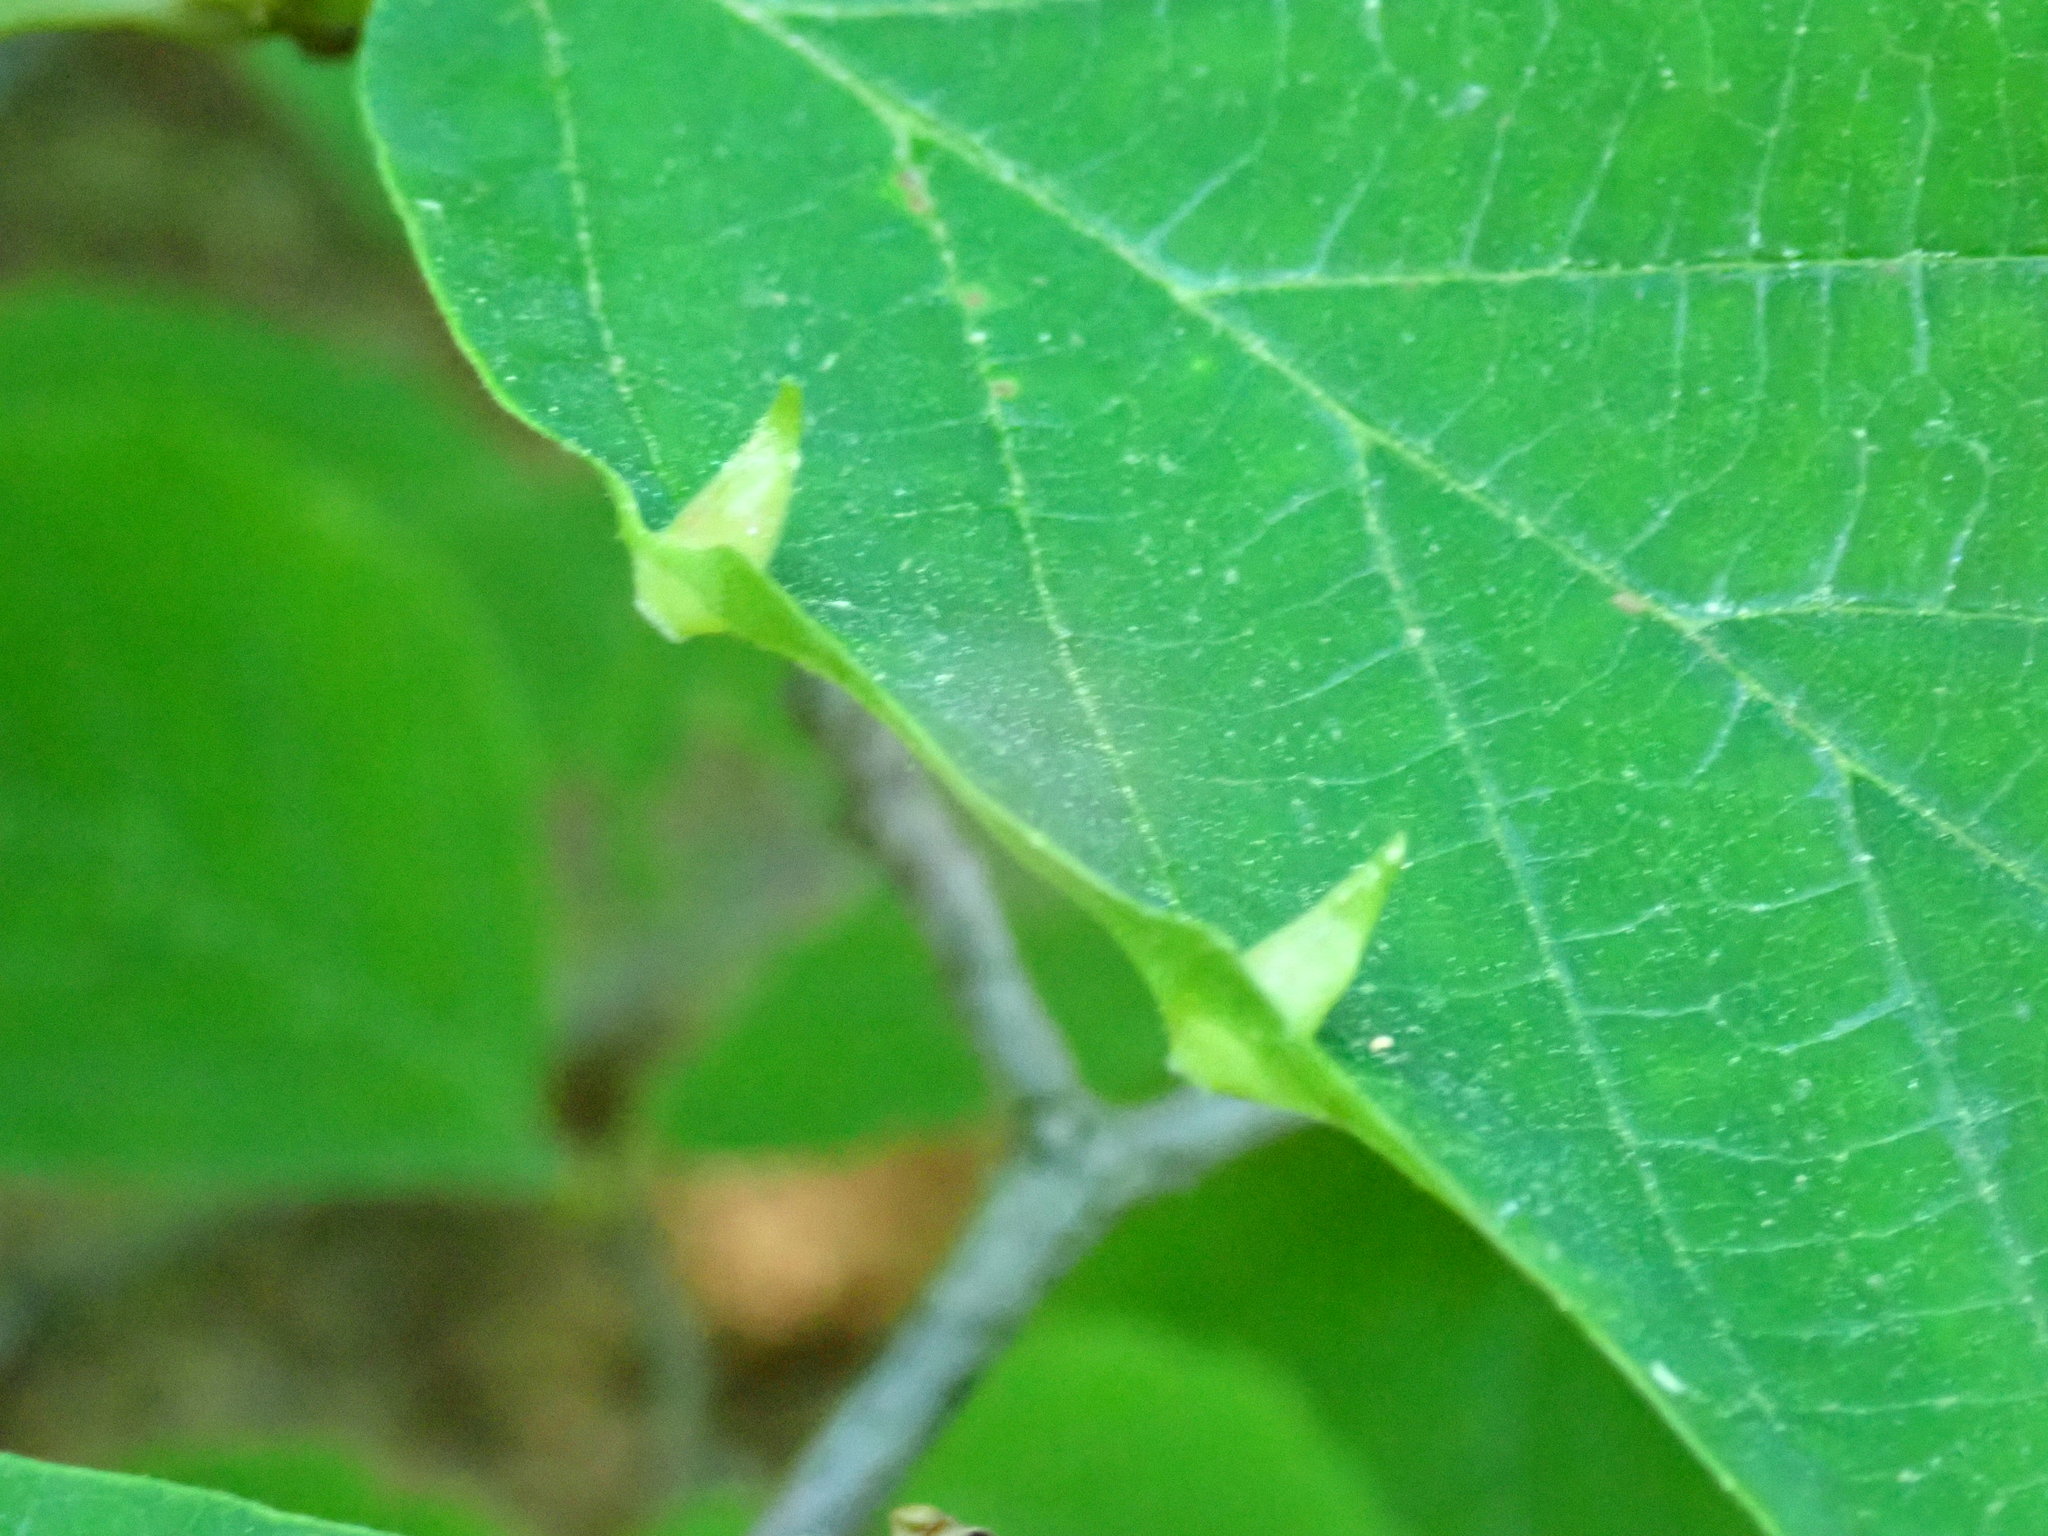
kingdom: Animalia
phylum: Arthropoda
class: Insecta
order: Hemiptera
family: Aphididae
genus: Hormaphis
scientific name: Hormaphis hamamelidis
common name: Witch-hazel cone gall aphid
